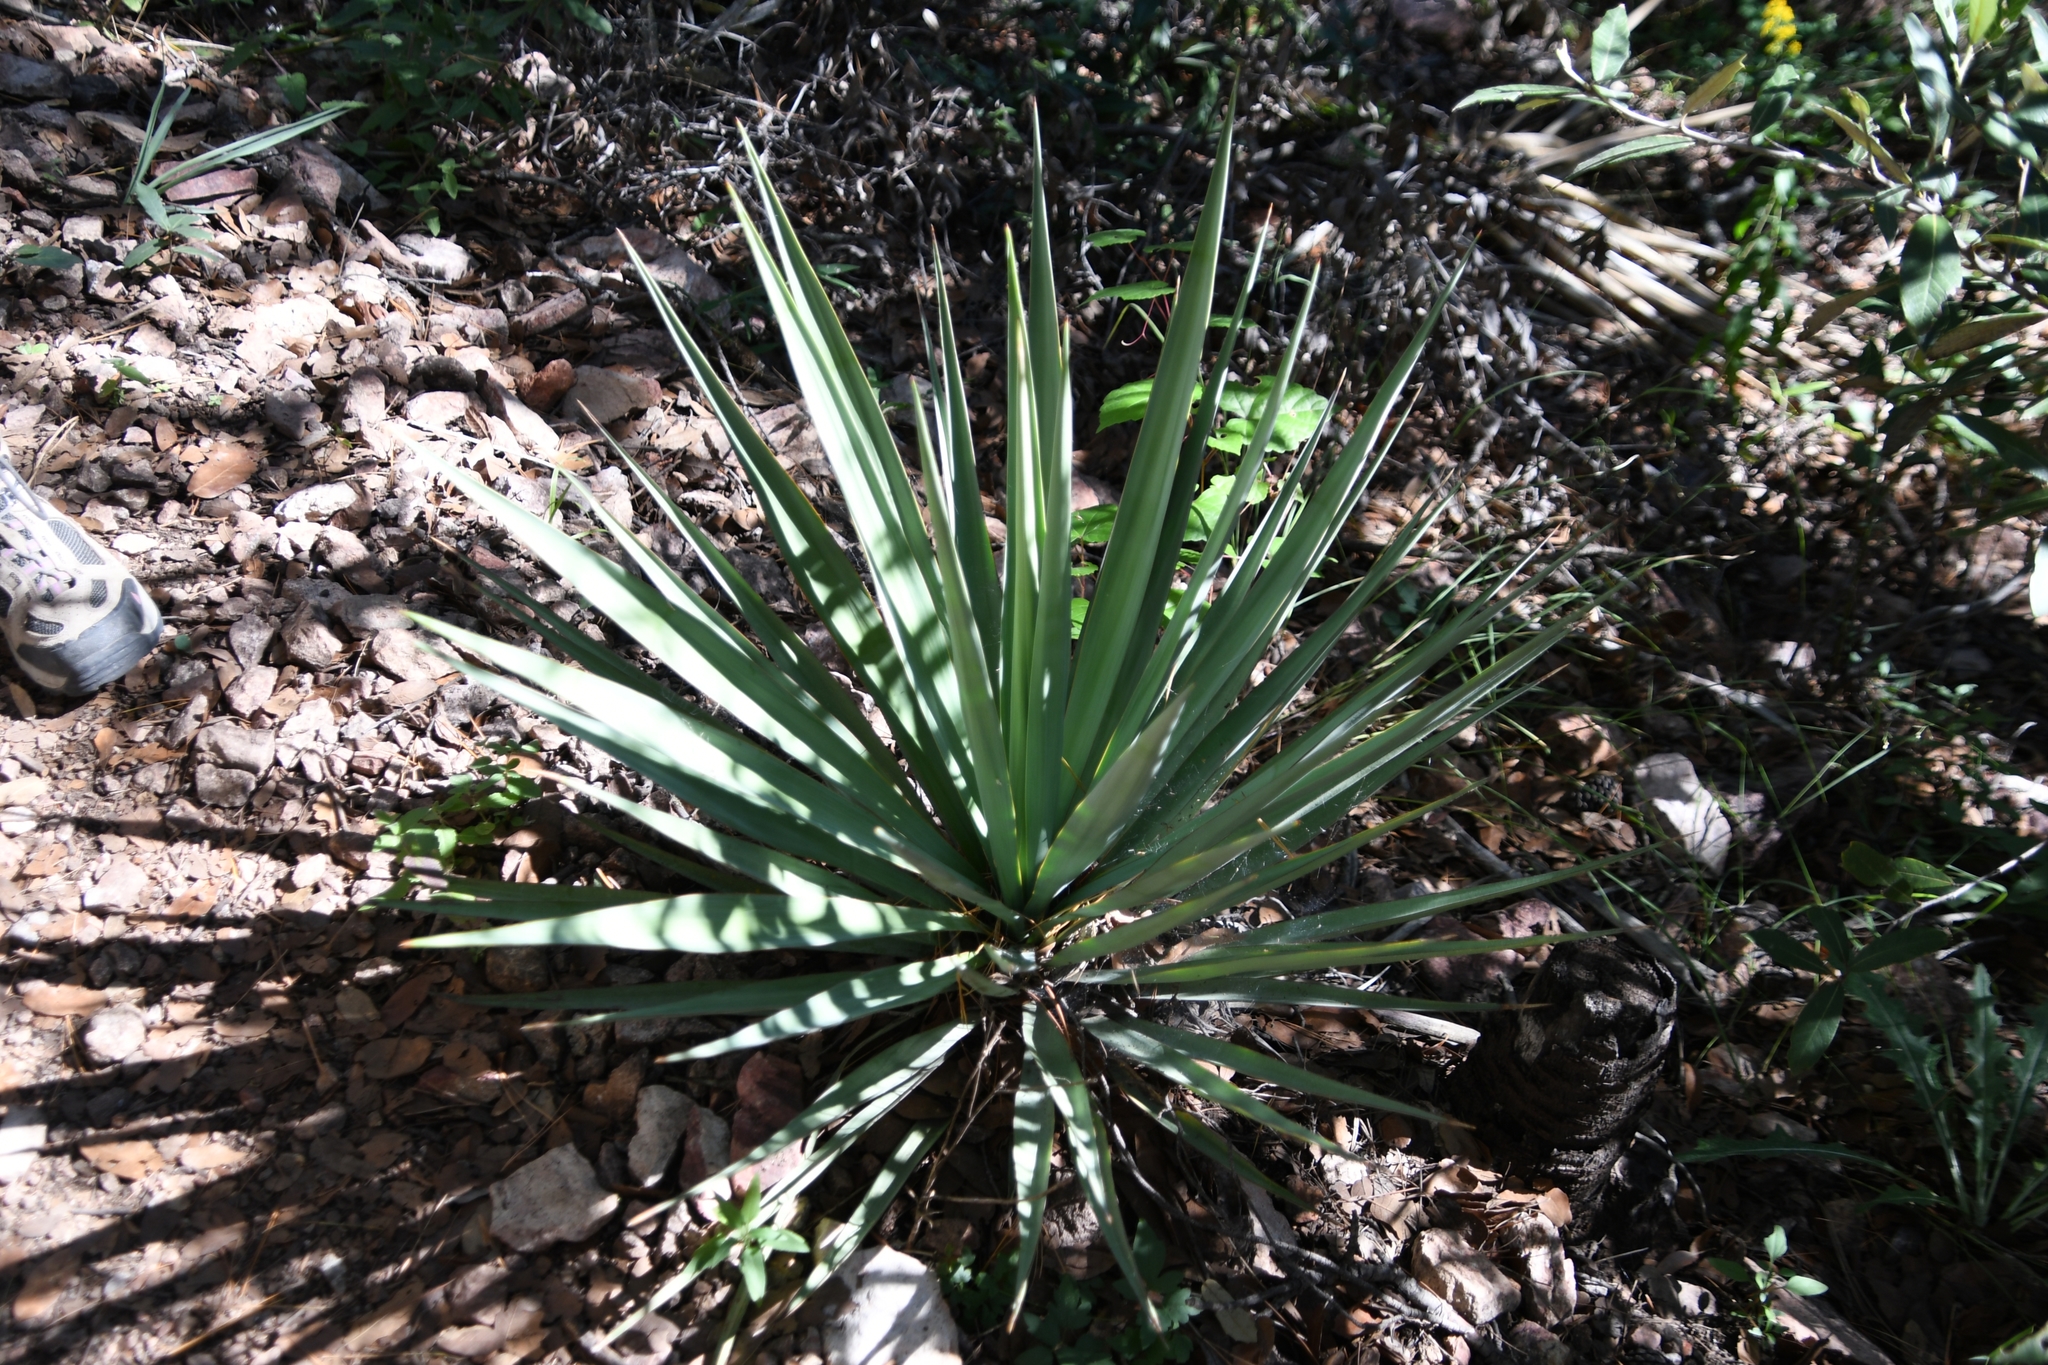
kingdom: Plantae
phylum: Tracheophyta
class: Liliopsida
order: Asparagales
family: Asparagaceae
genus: Yucca
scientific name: Yucca madrensis
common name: Hoary yucca
